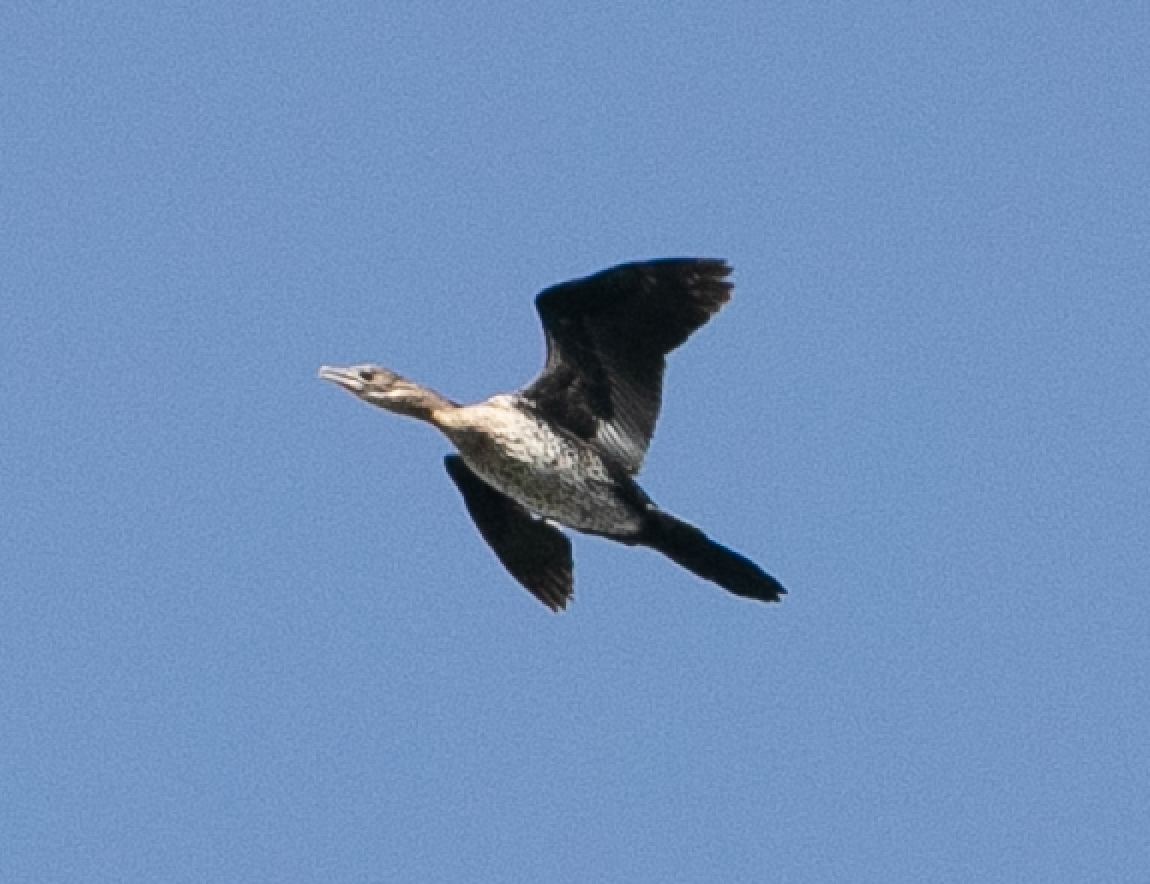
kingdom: Animalia
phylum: Chordata
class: Aves
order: Suliformes
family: Phalacrocoracidae
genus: Microcarbo
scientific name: Microcarbo pygmaeus
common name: Pygmy cormorant
